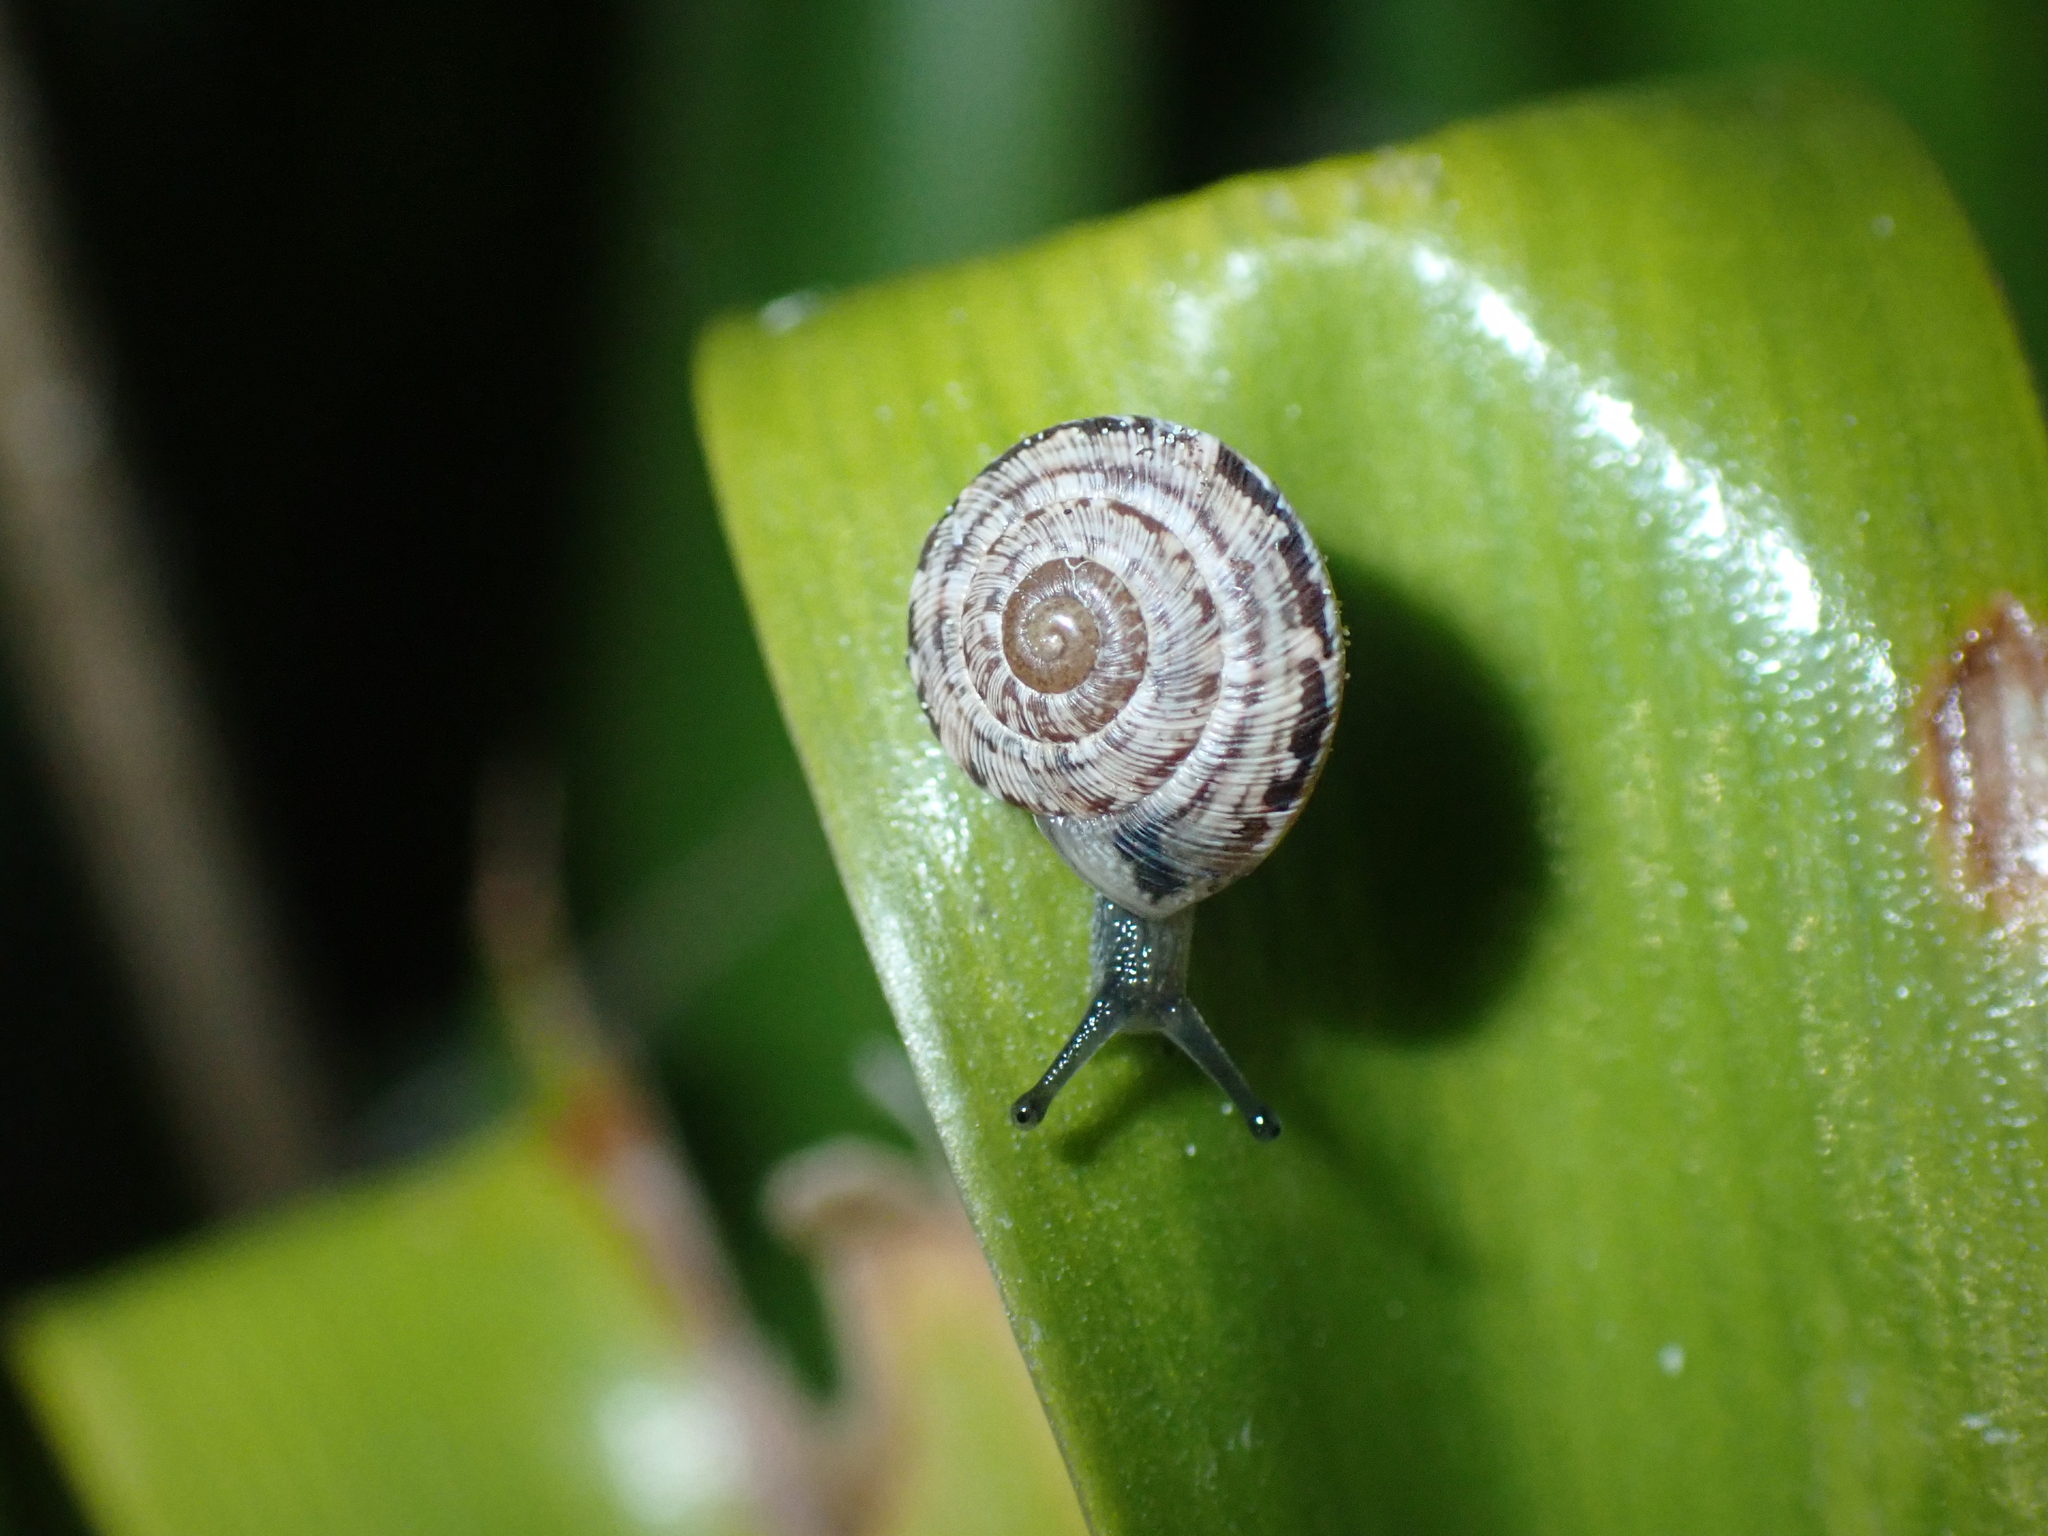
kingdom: Animalia
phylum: Mollusca
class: Gastropoda
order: Stylommatophora
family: Geomitridae
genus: Xeroplexa
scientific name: Xeroplexa intersecta
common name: Wrinkled snail
